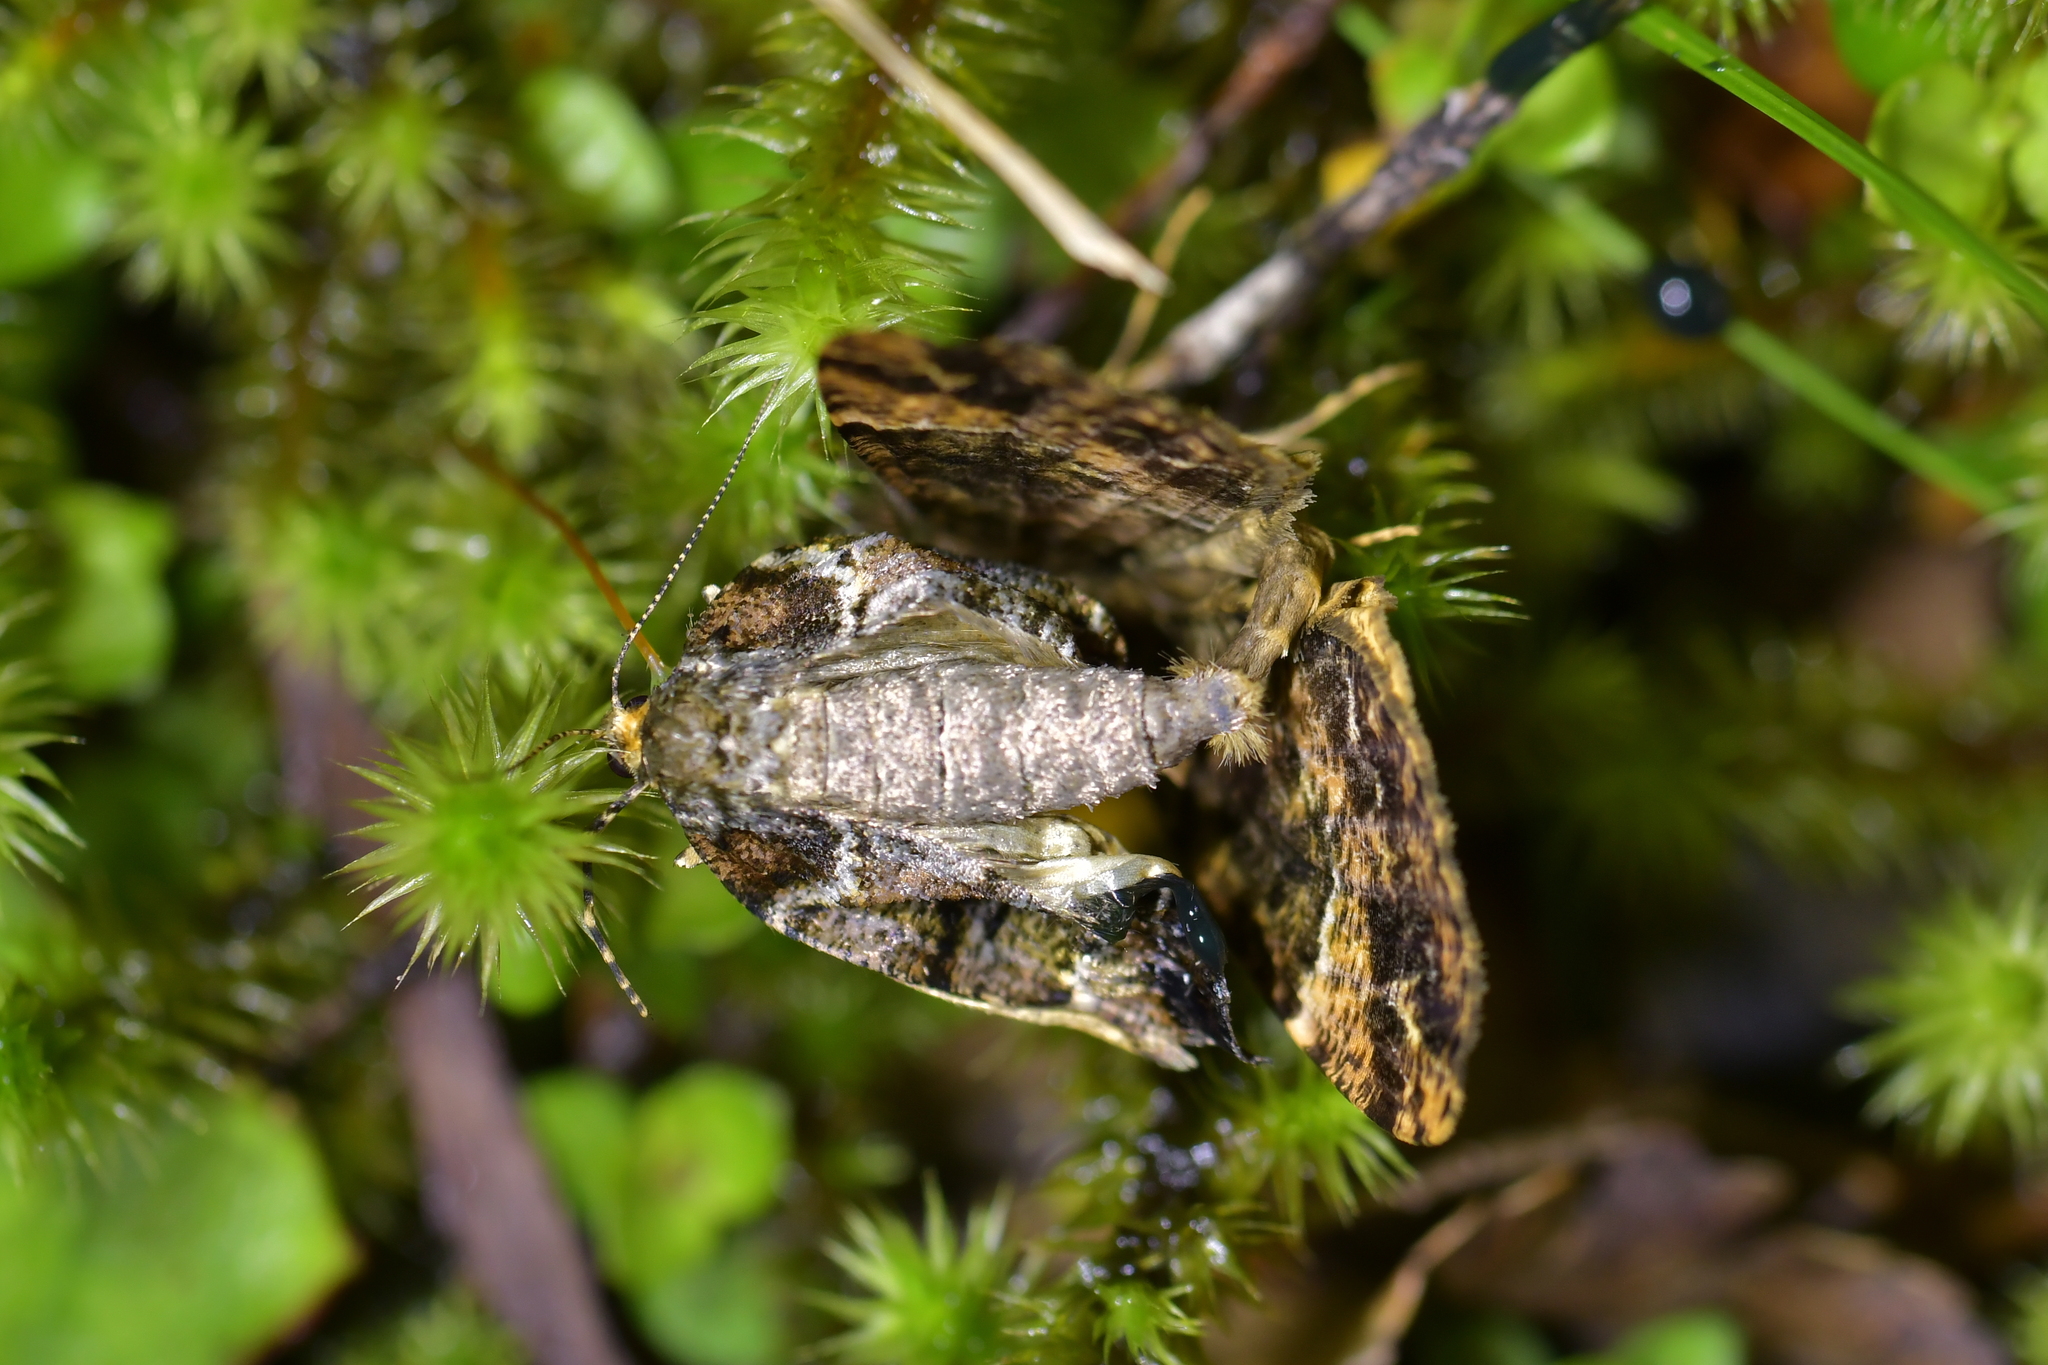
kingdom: Animalia
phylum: Arthropoda
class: Insecta
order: Lepidoptera
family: Geometridae
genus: Pseudocoremia
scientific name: Pseudocoremia productata
